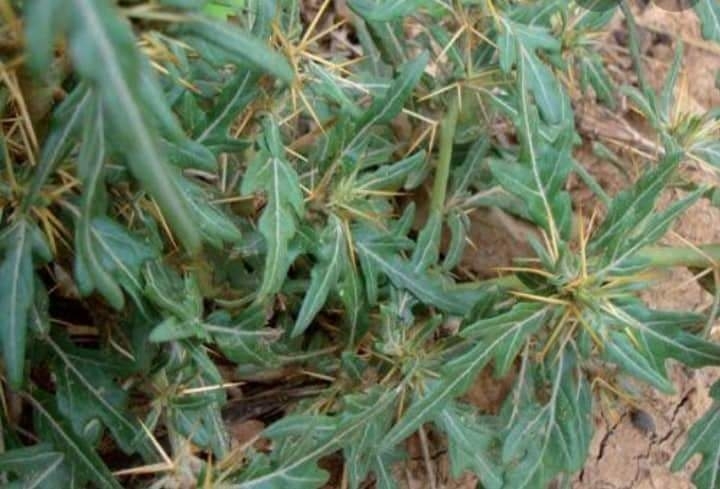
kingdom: Plantae
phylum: Tracheophyta
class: Magnoliopsida
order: Asterales
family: Asteraceae
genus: Xanthium
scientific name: Xanthium spinosum
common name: Spiny cocklebur
